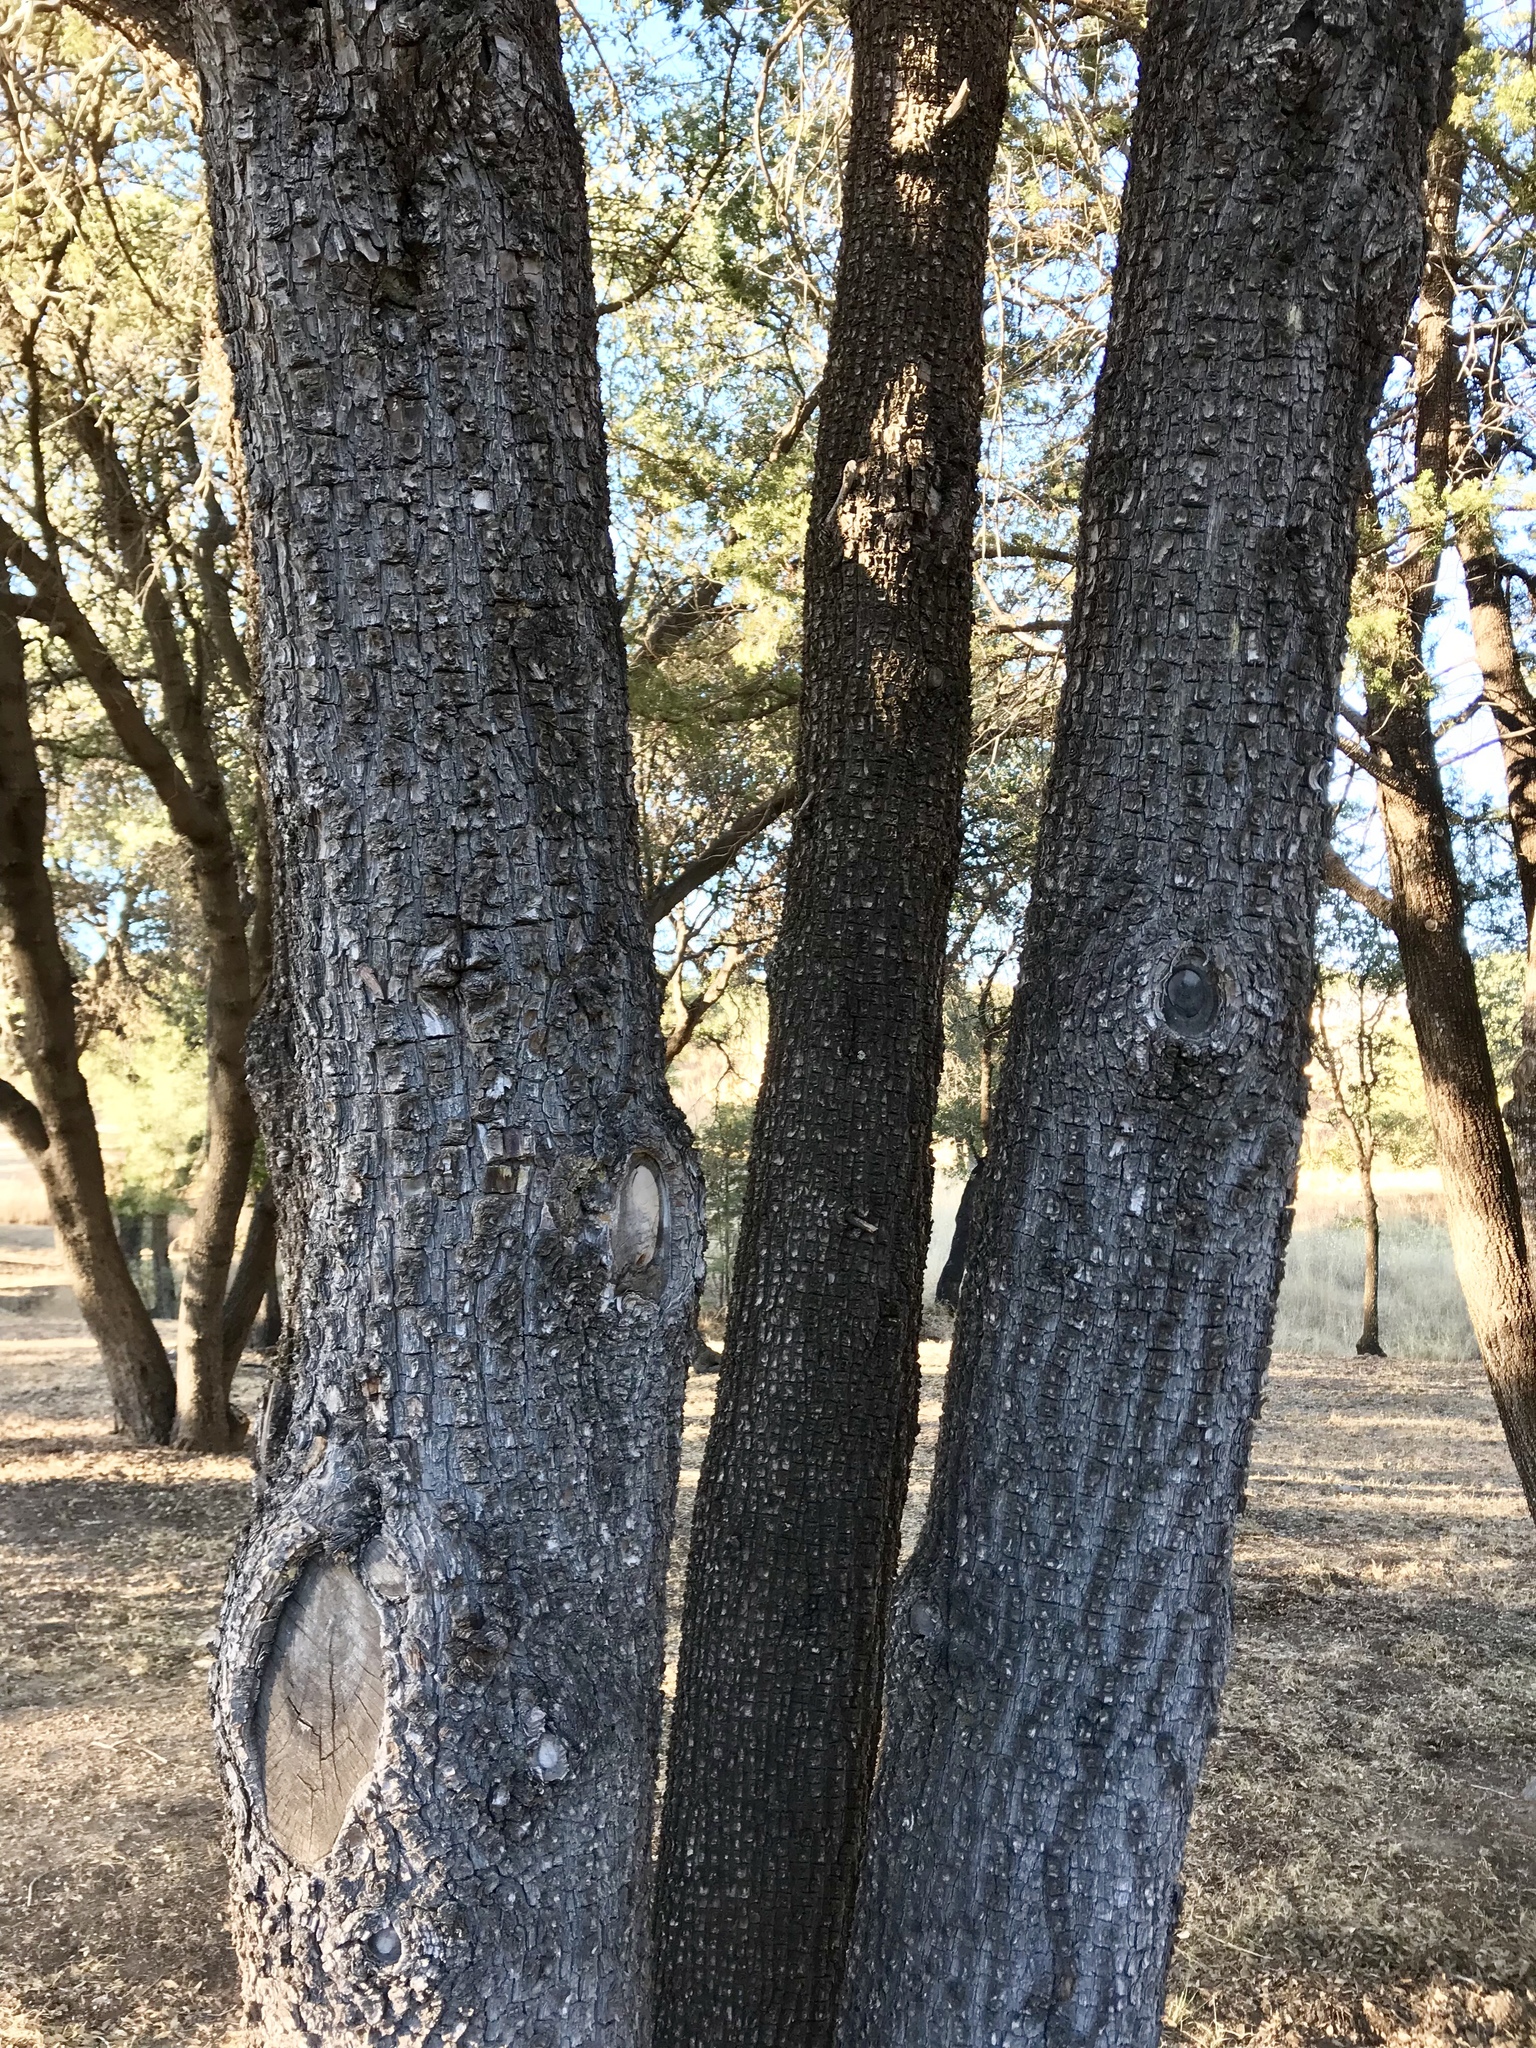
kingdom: Plantae
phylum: Tracheophyta
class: Pinopsida
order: Pinales
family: Cupressaceae
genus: Juniperus
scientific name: Juniperus deppeana
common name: Alligator juniper
